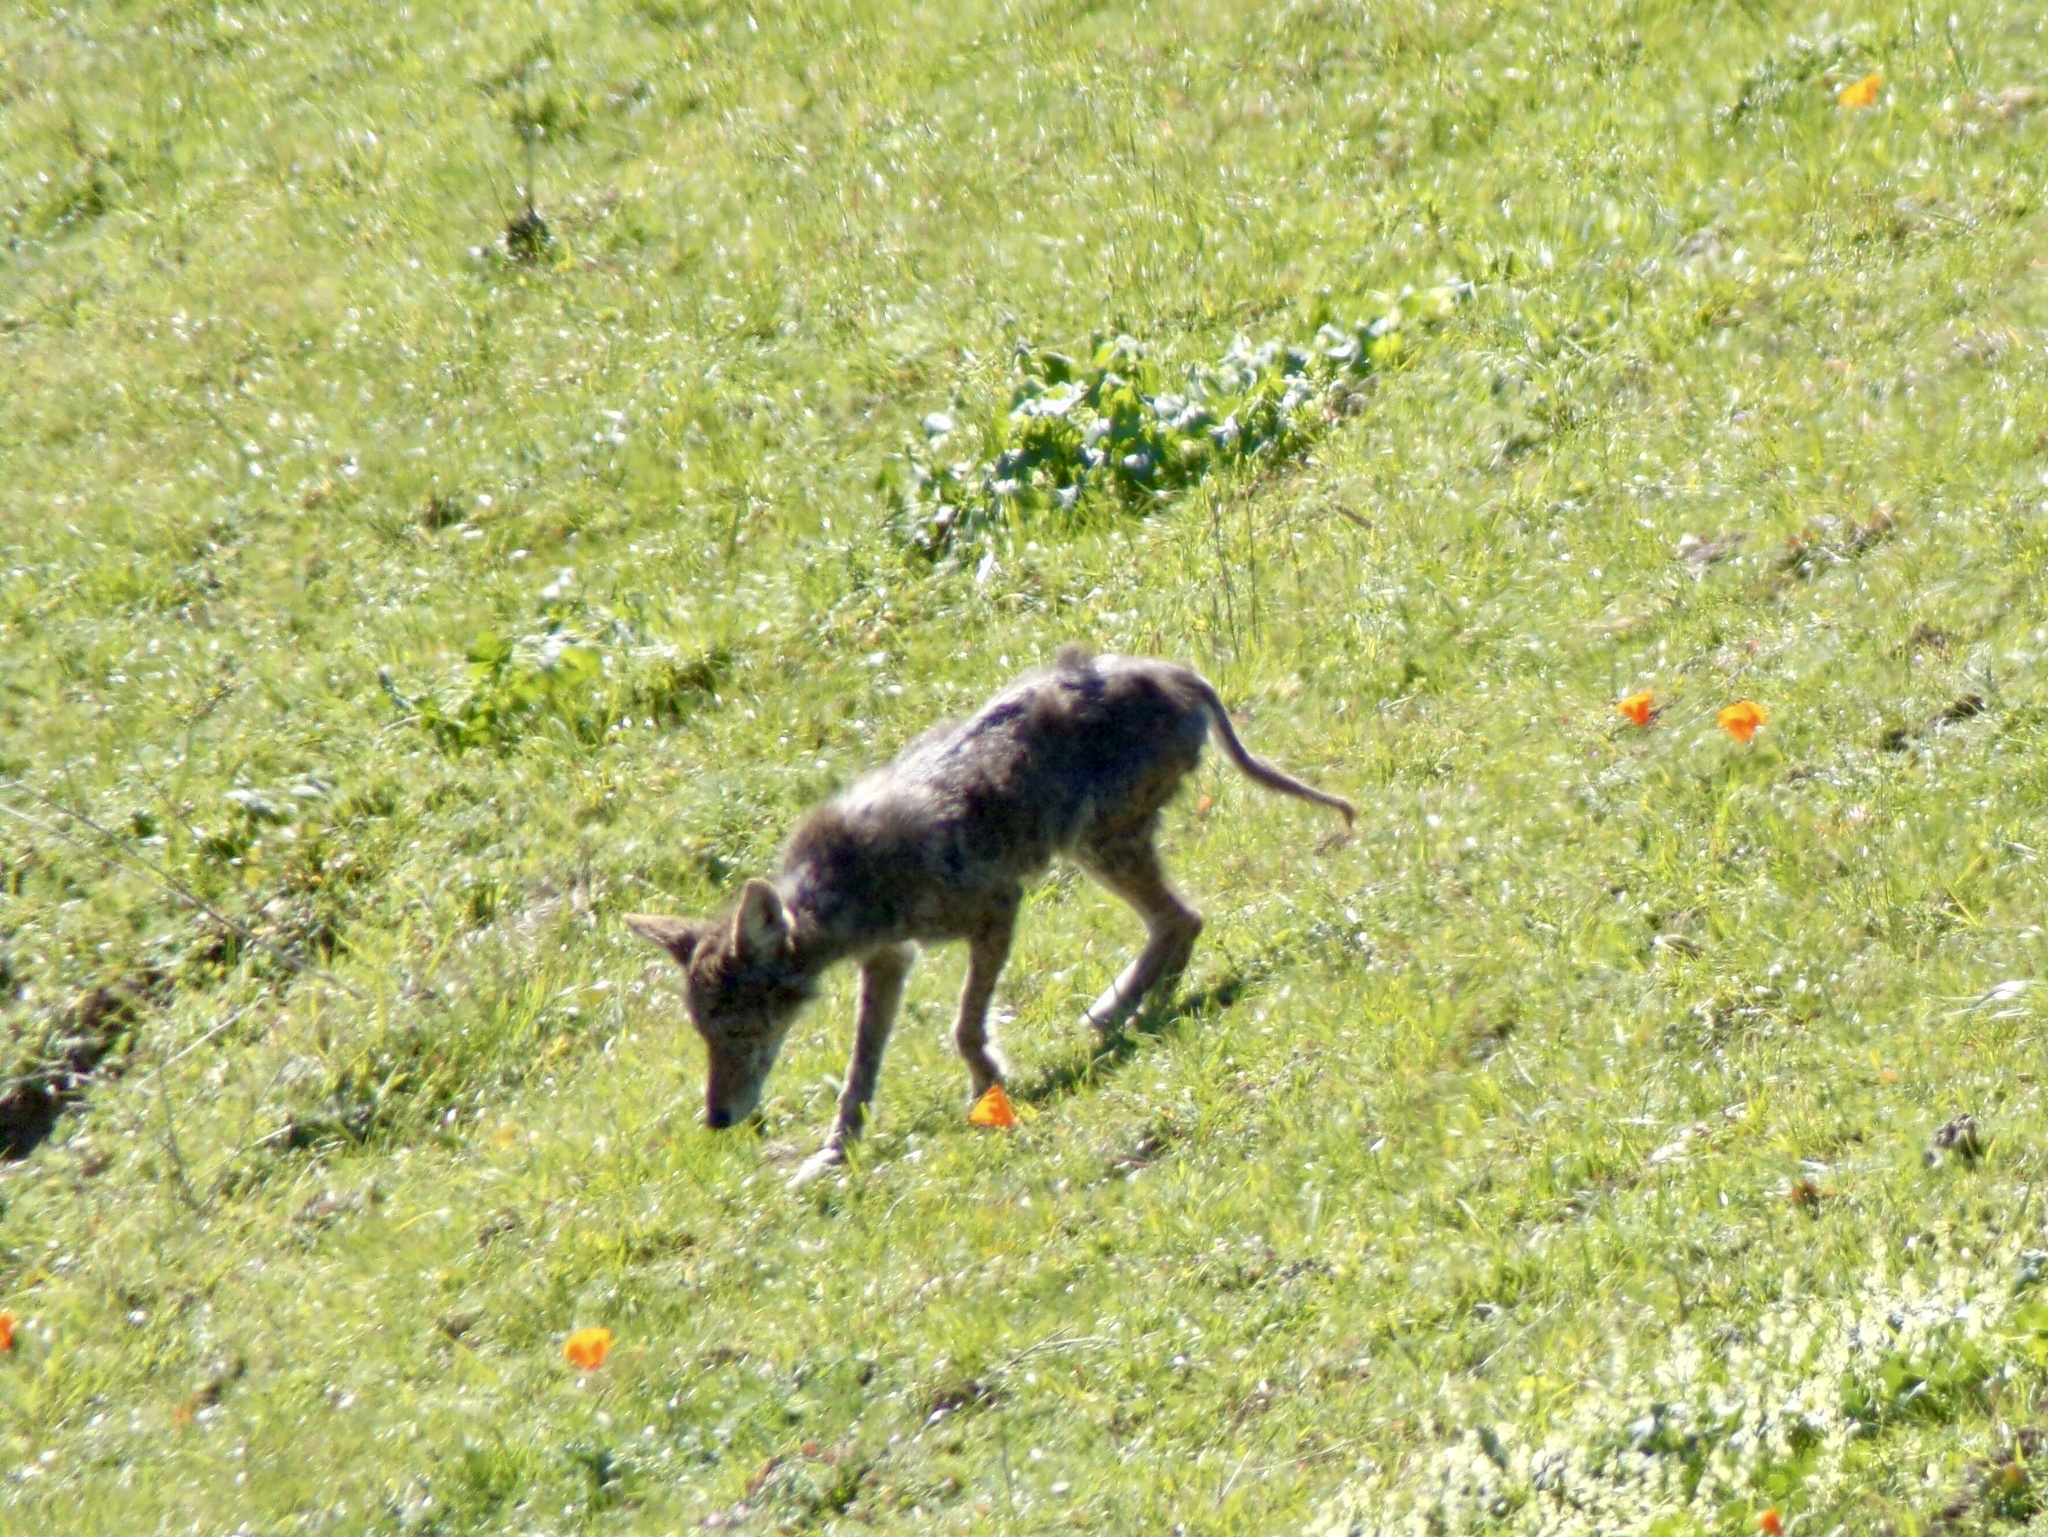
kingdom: Animalia
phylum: Chordata
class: Mammalia
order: Carnivora
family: Canidae
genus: Canis
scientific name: Canis latrans
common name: Coyote
